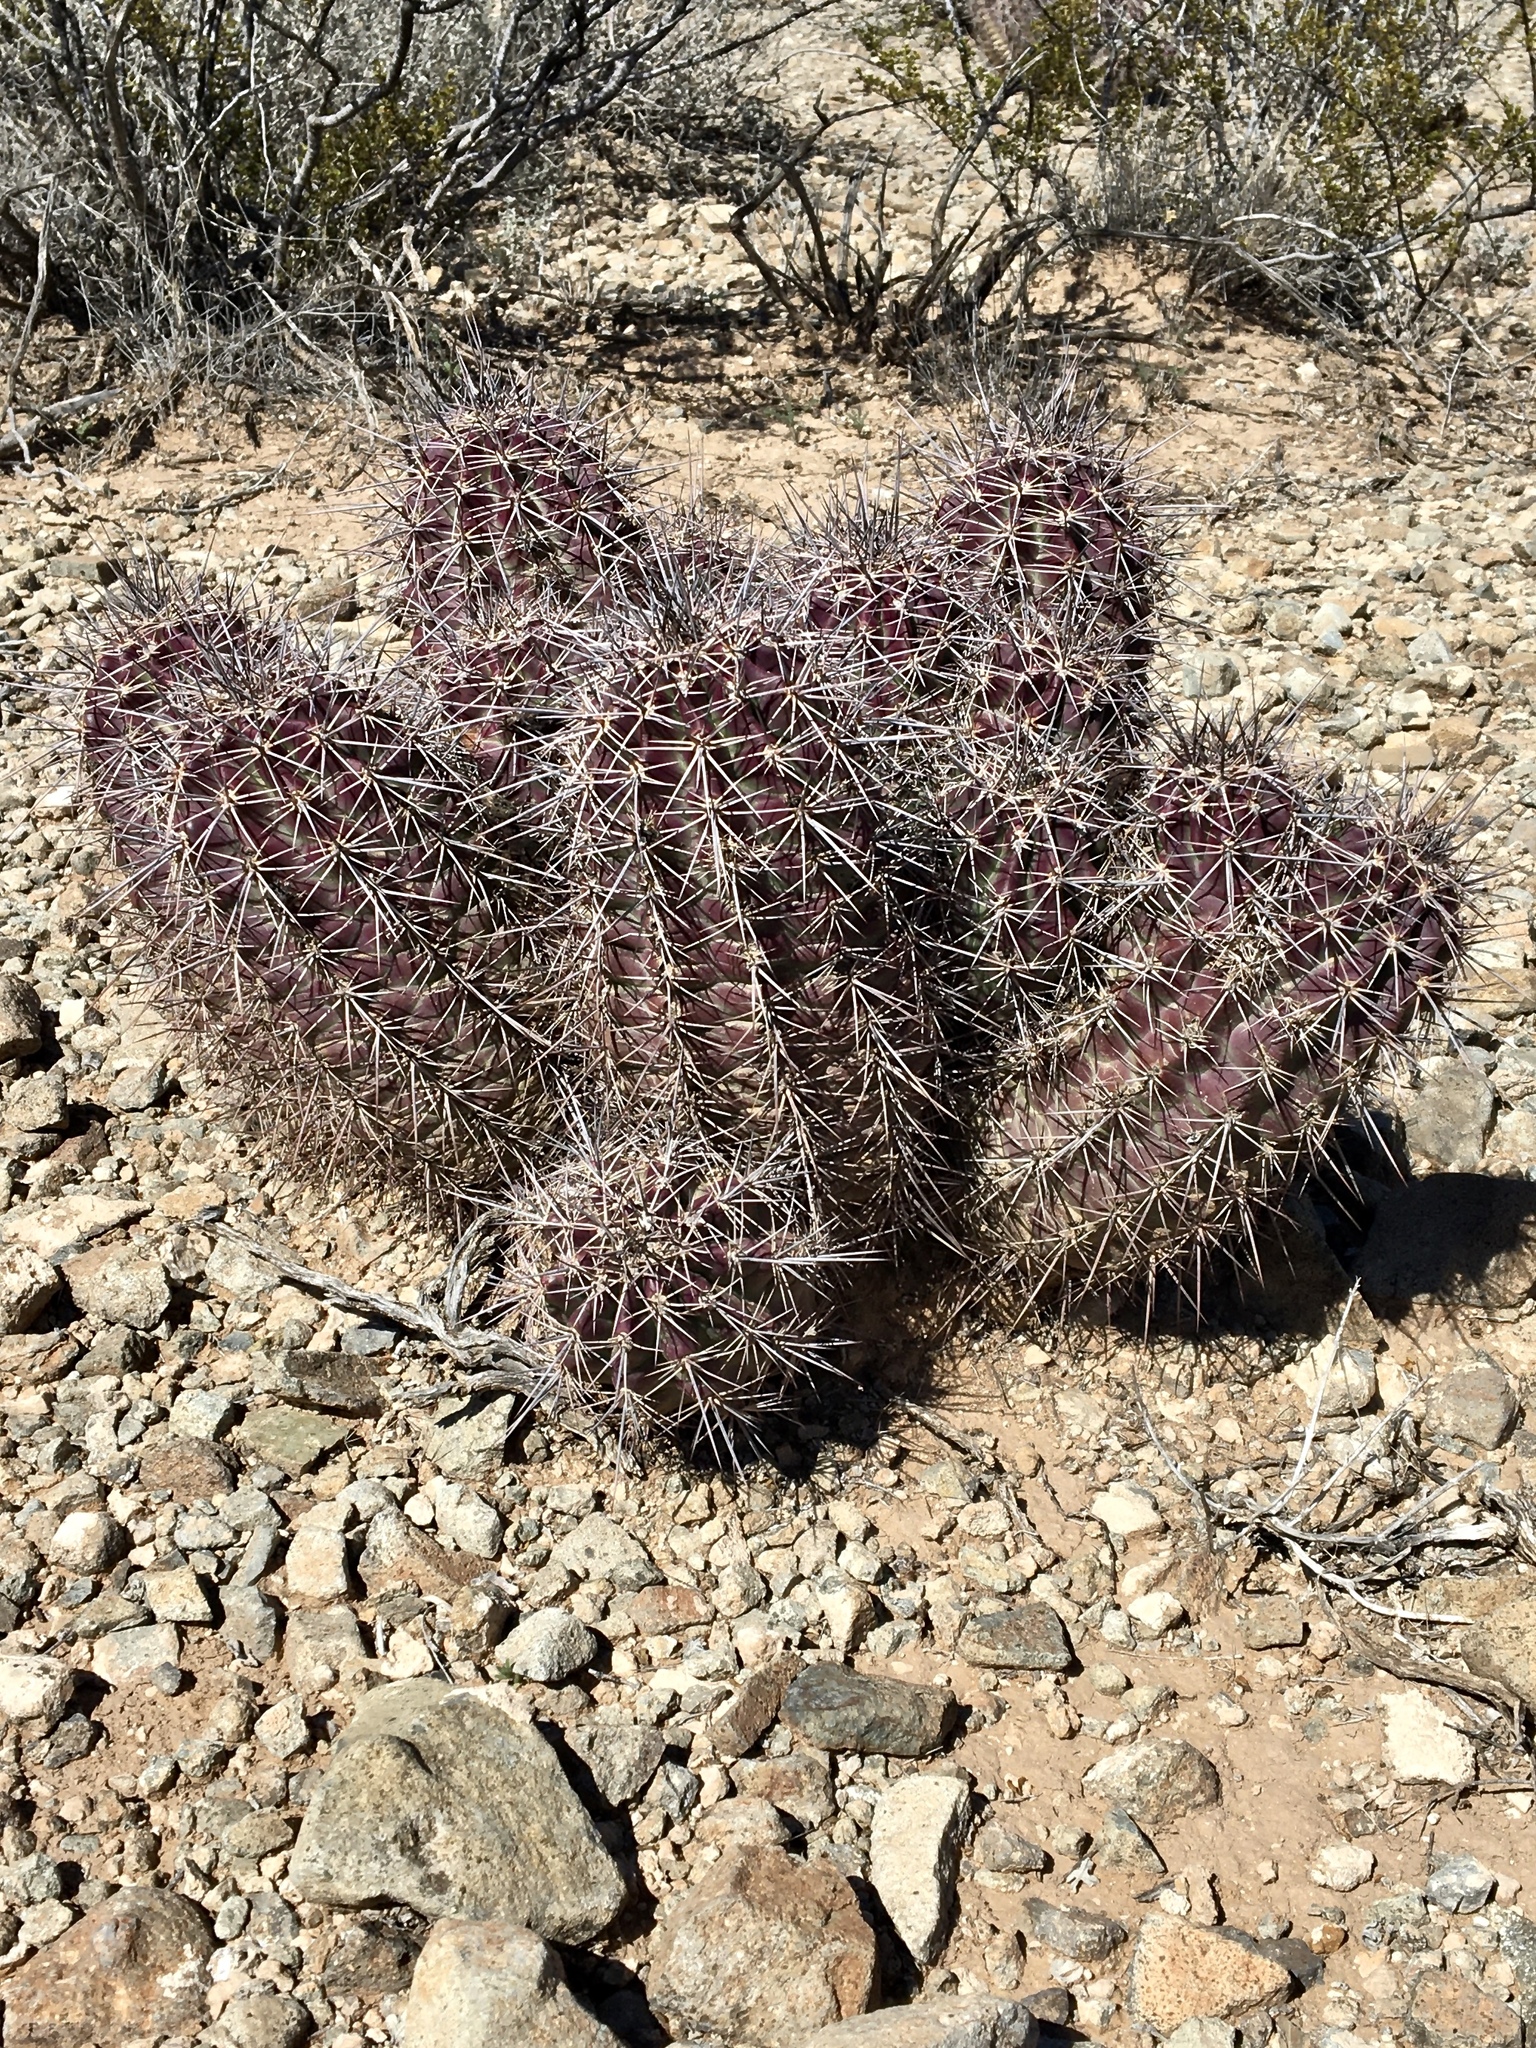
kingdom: Plantae
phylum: Tracheophyta
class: Magnoliopsida
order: Caryophyllales
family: Cactaceae
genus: Echinocereus
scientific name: Echinocereus coccineus
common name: Scarlet hedgehog cactus
